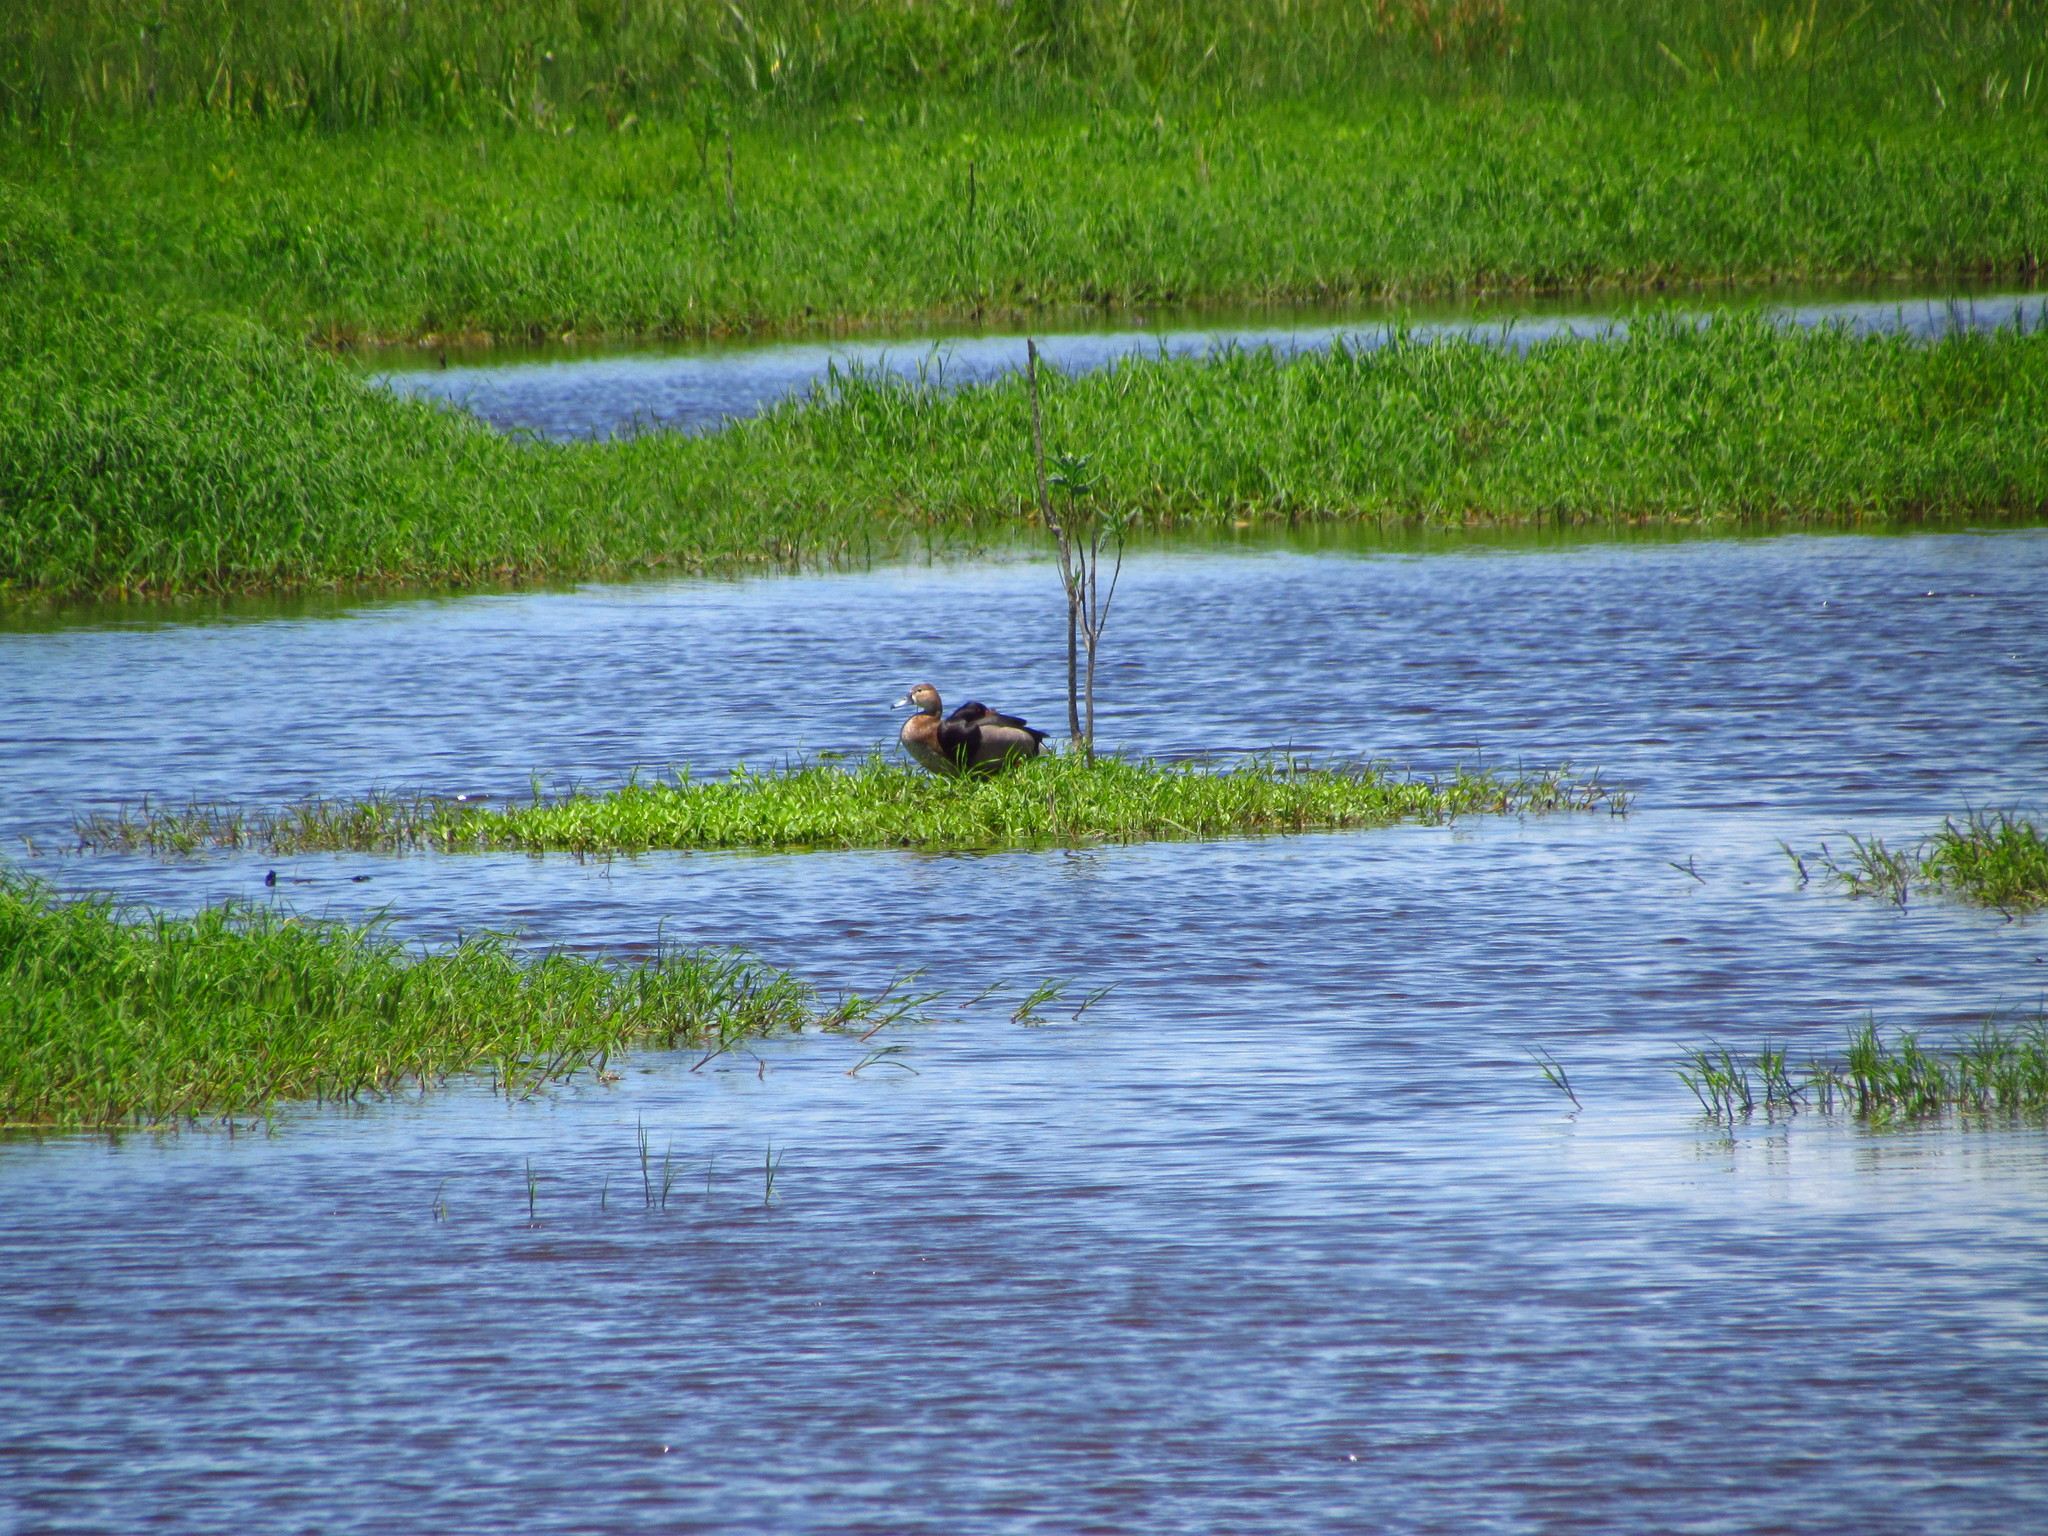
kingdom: Animalia
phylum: Chordata
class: Aves
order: Anseriformes
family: Anatidae
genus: Netta
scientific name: Netta peposaca
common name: Rosy-billed pochard
